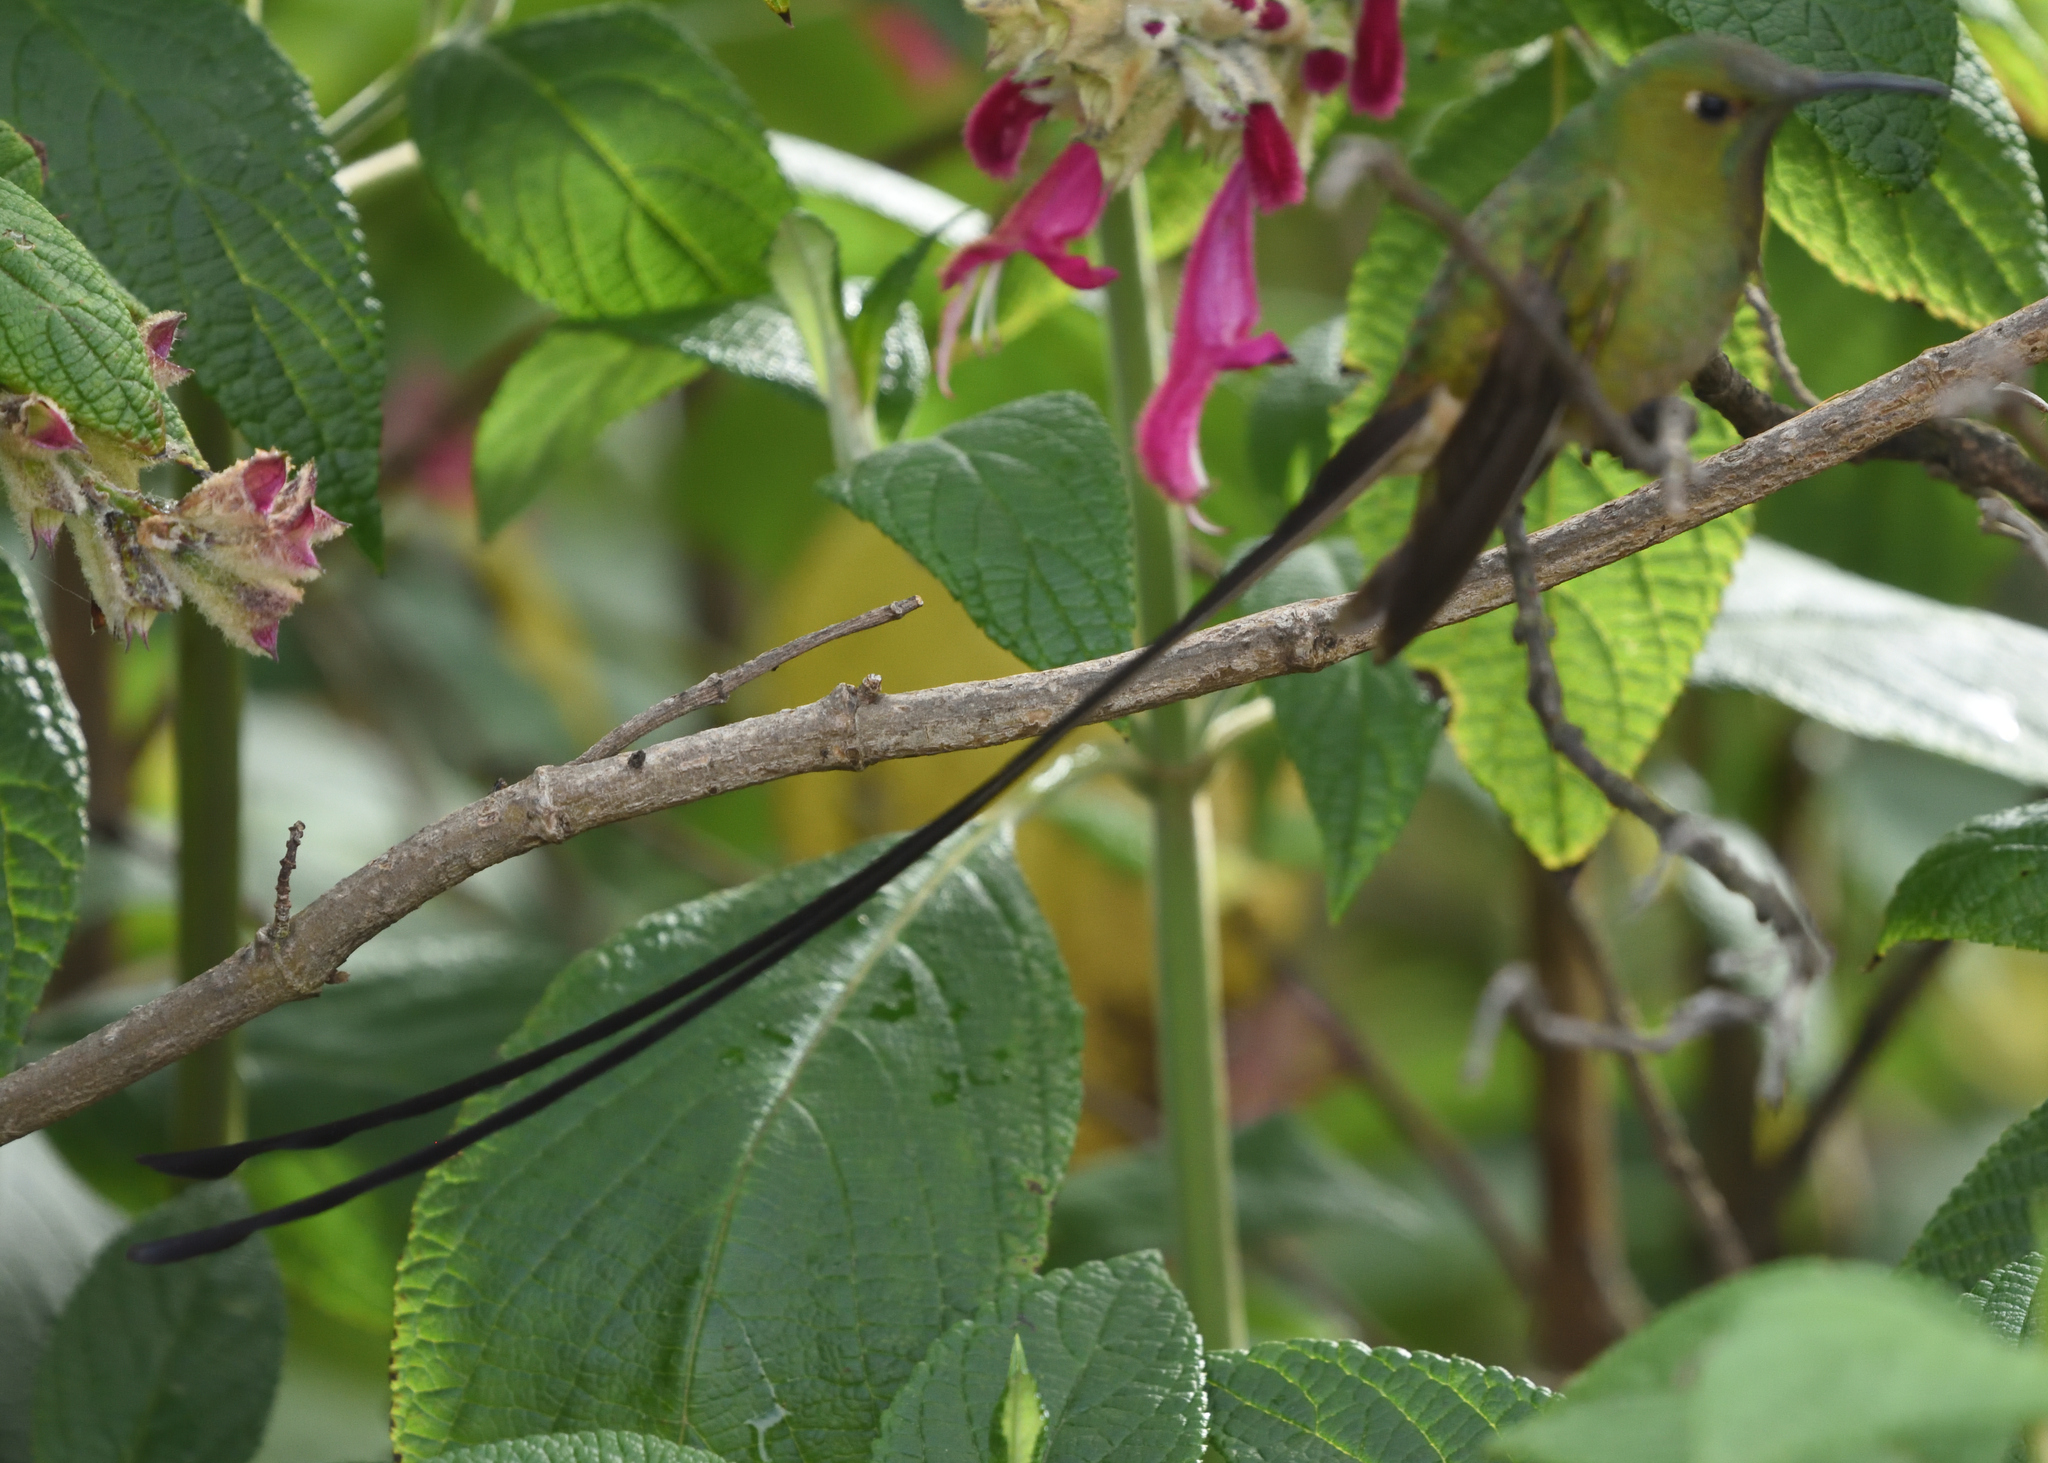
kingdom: Animalia
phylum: Chordata
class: Aves
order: Apodiformes
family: Trochilidae
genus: Lesbia
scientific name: Lesbia victoriae
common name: Black-tailed trainbearer
